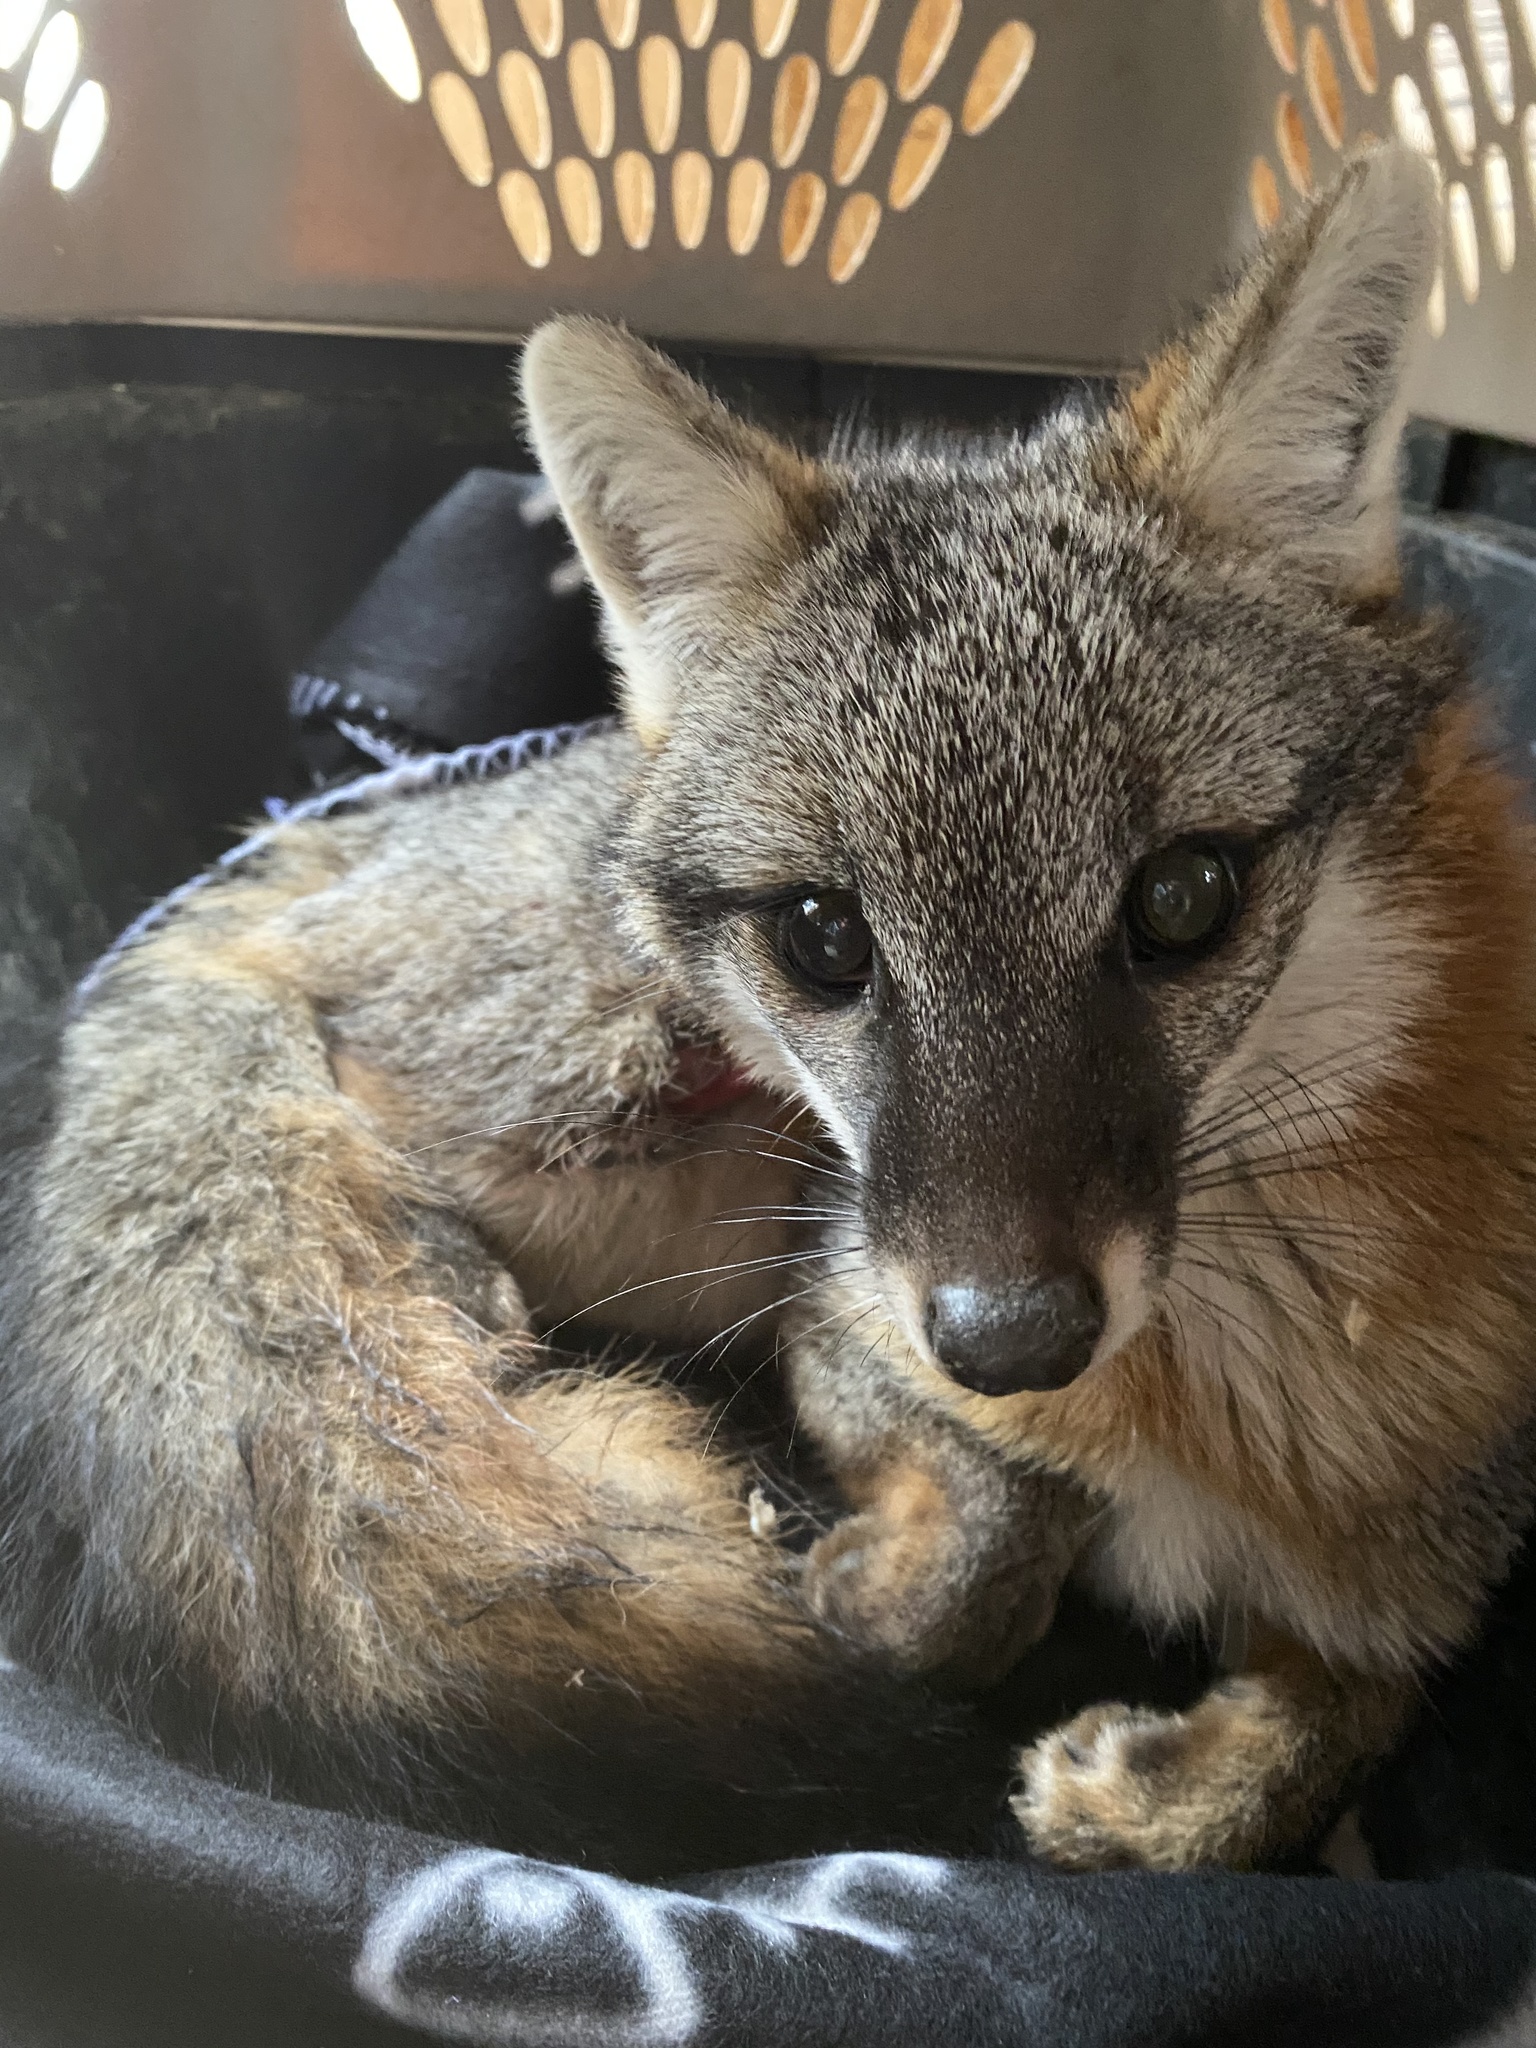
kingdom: Animalia
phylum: Chordata
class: Mammalia
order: Carnivora
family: Canidae
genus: Urocyon
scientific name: Urocyon cinereoargenteus
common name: Gray fox
